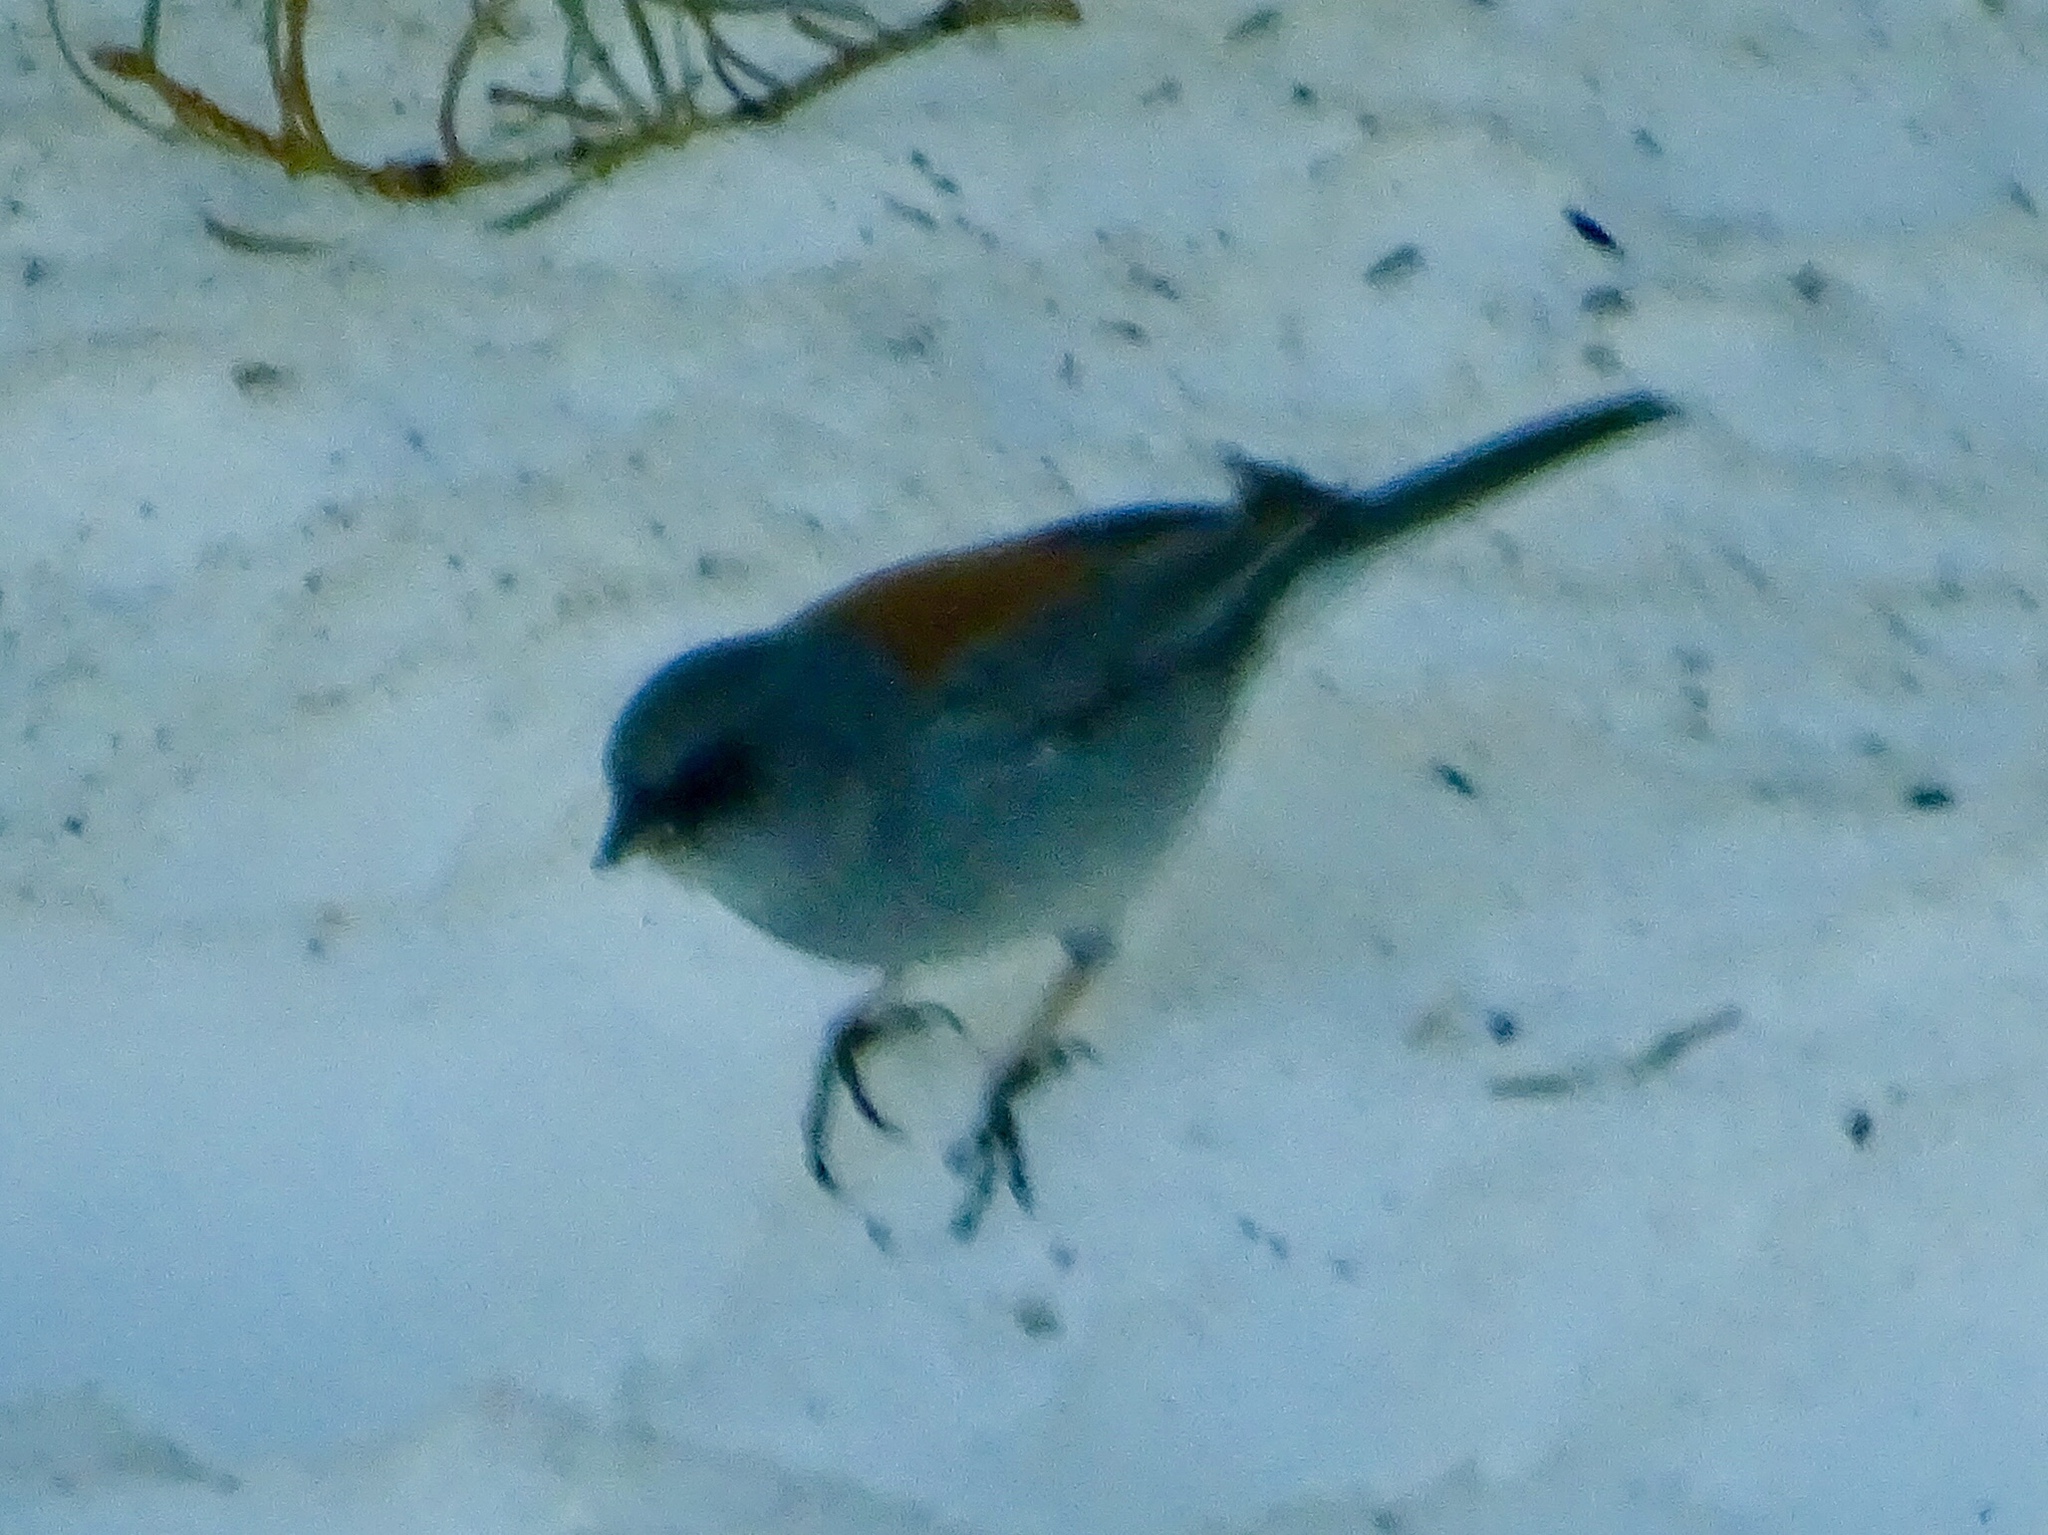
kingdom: Animalia
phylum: Chordata
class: Aves
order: Passeriformes
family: Passerellidae
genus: Junco
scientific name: Junco hyemalis
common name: Dark-eyed junco
